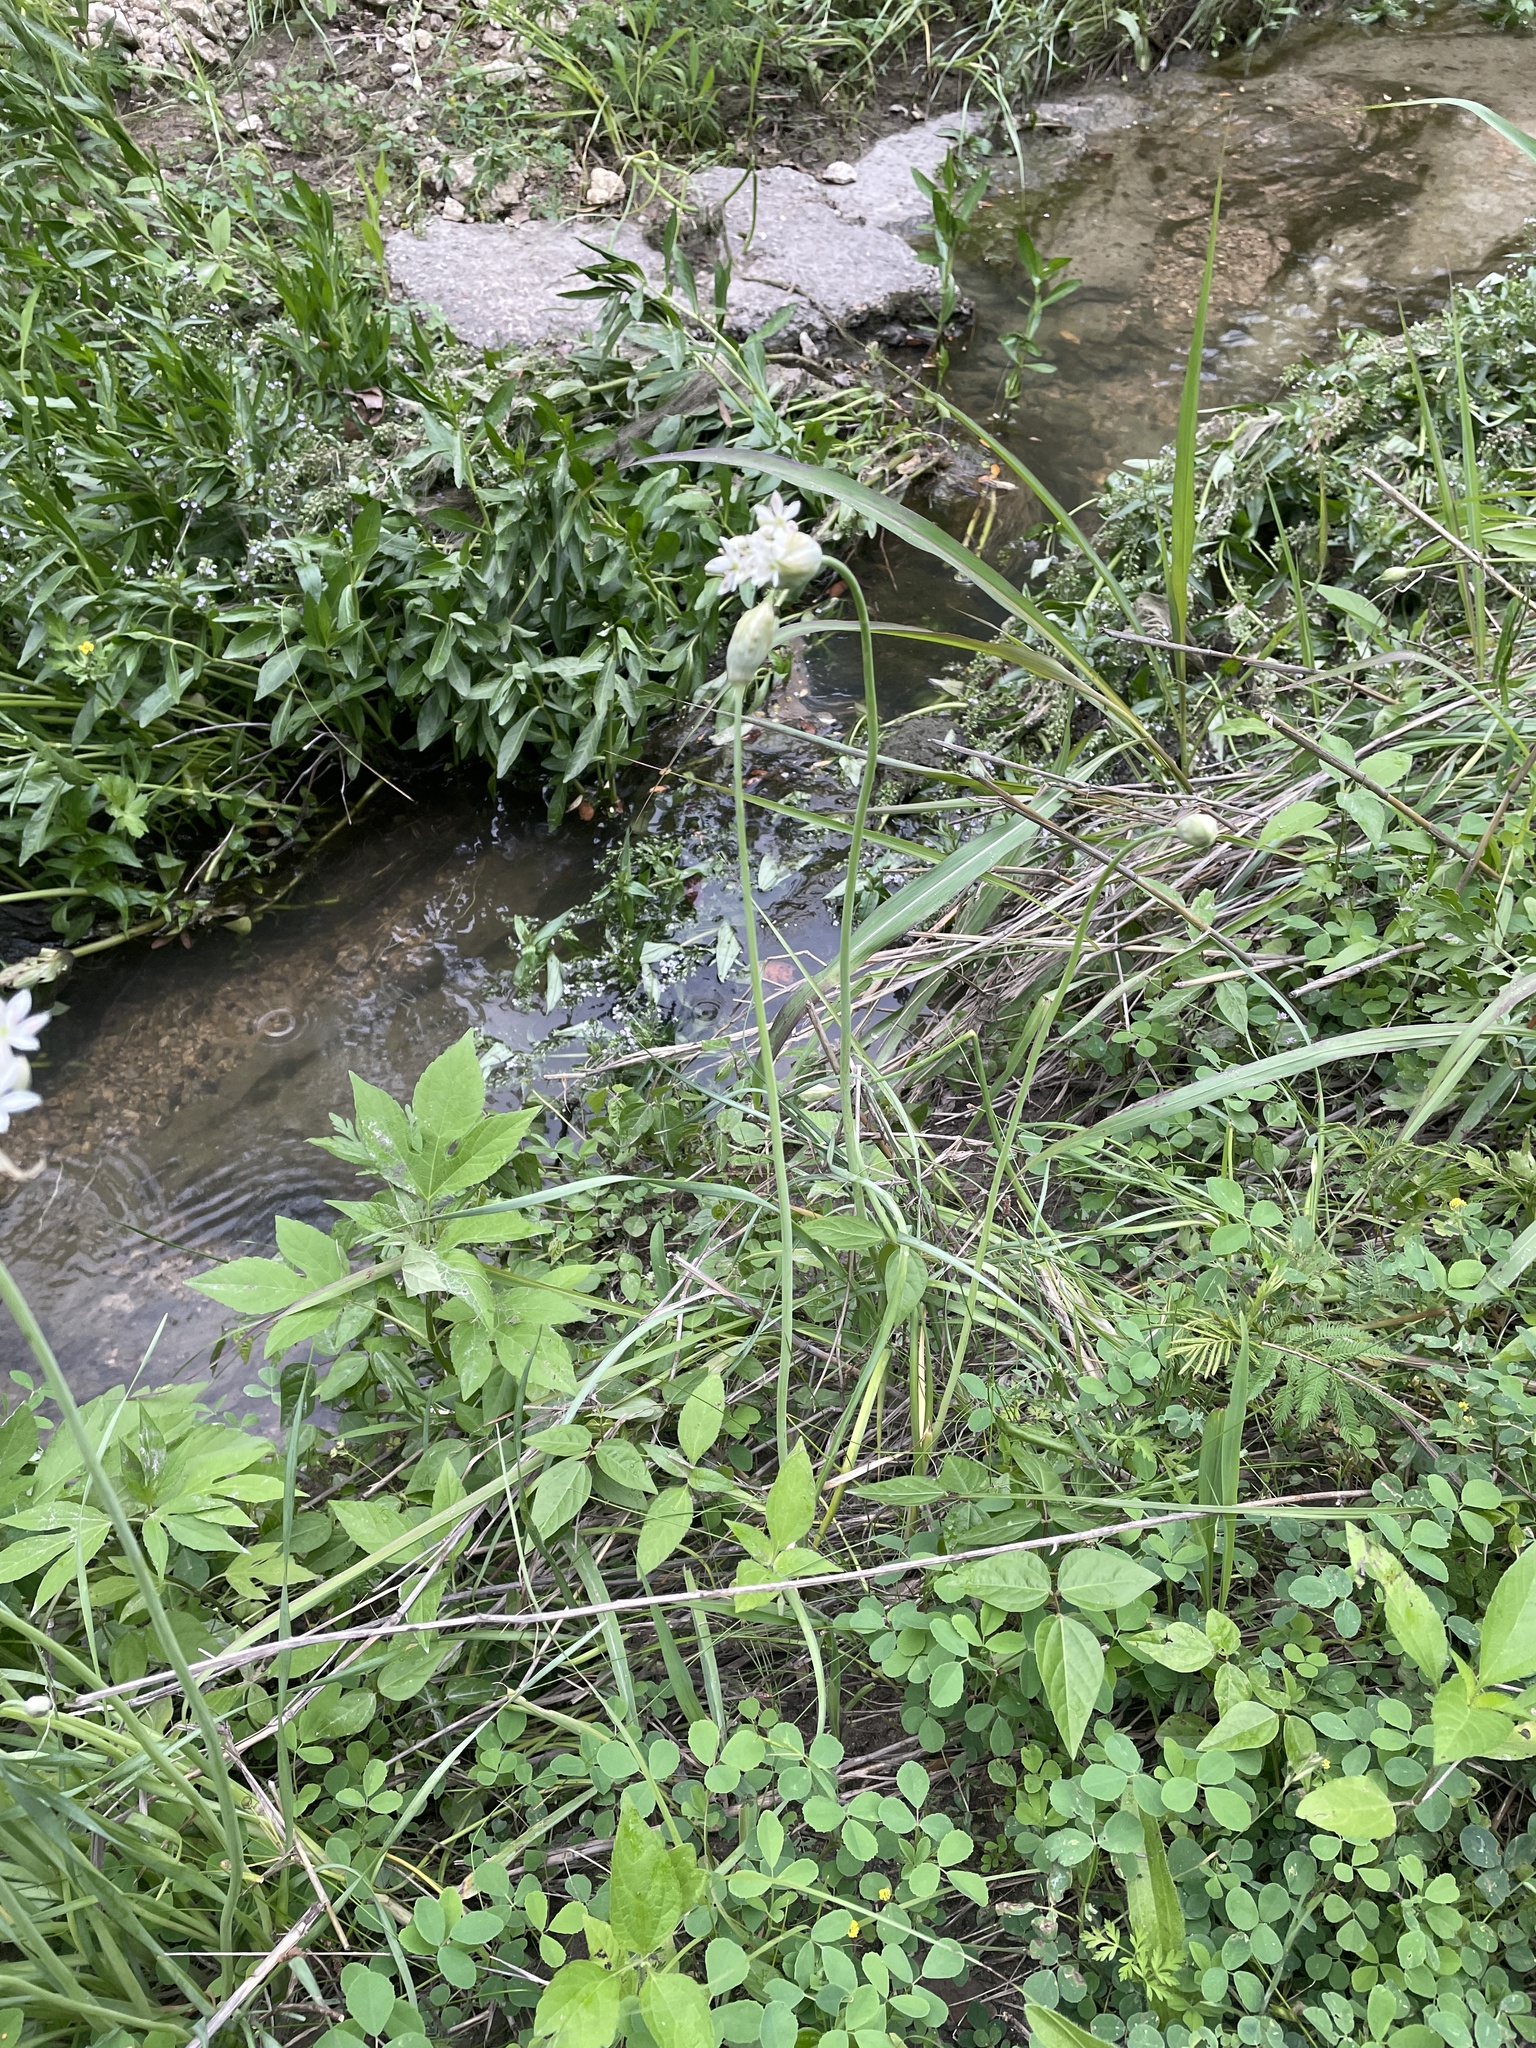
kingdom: Plantae
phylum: Tracheophyta
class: Liliopsida
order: Asparagales
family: Amaryllidaceae
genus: Allium
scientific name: Allium canadense
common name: Meadow garlic
